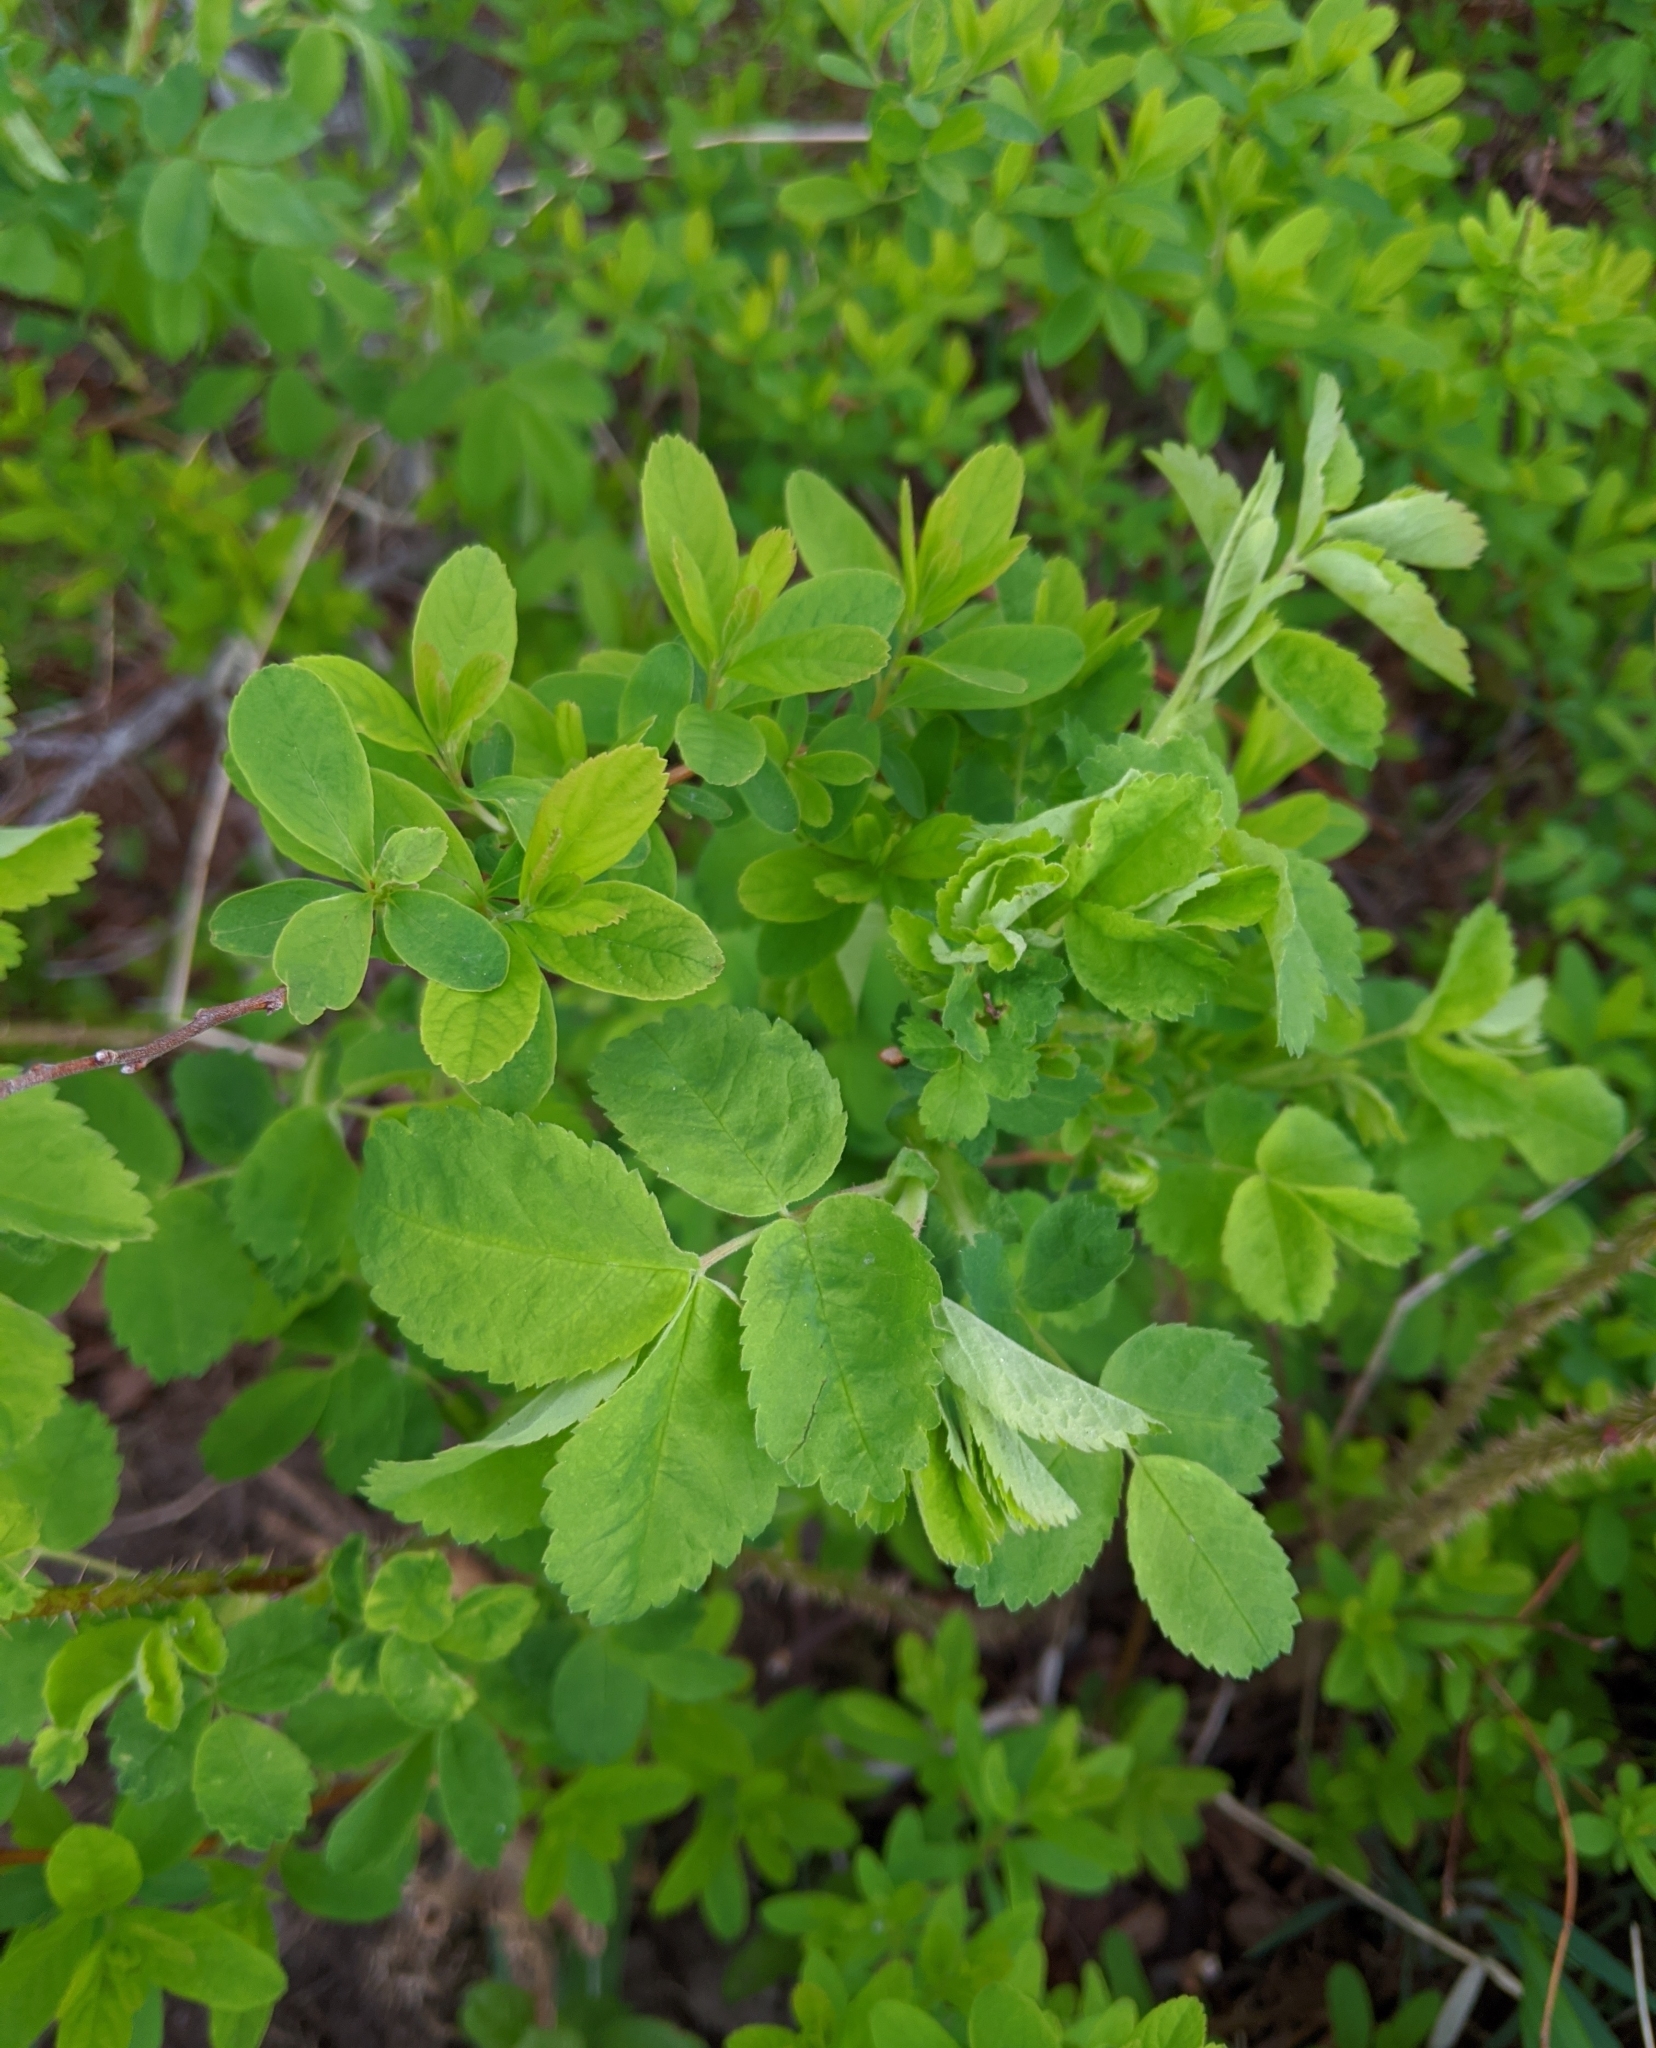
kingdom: Plantae
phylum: Tracheophyta
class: Magnoliopsida
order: Rosales
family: Rosaceae
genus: Rosa
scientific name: Rosa acicularis
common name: Prickly rose
